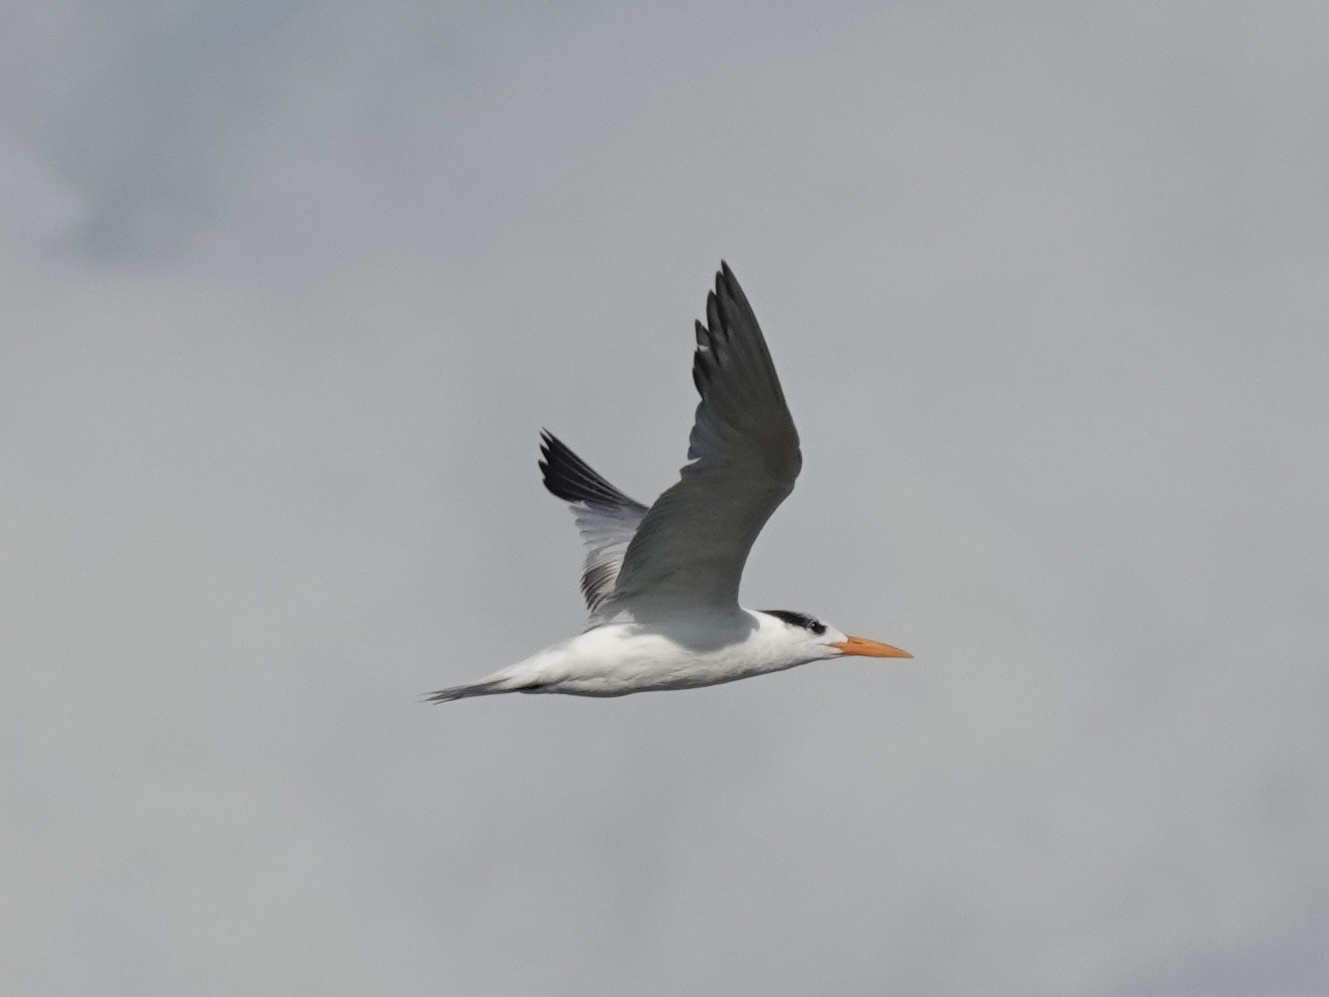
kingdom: Animalia
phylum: Chordata
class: Aves
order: Charadriiformes
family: Laridae
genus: Thalasseus
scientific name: Thalasseus maximus
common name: Royal tern
